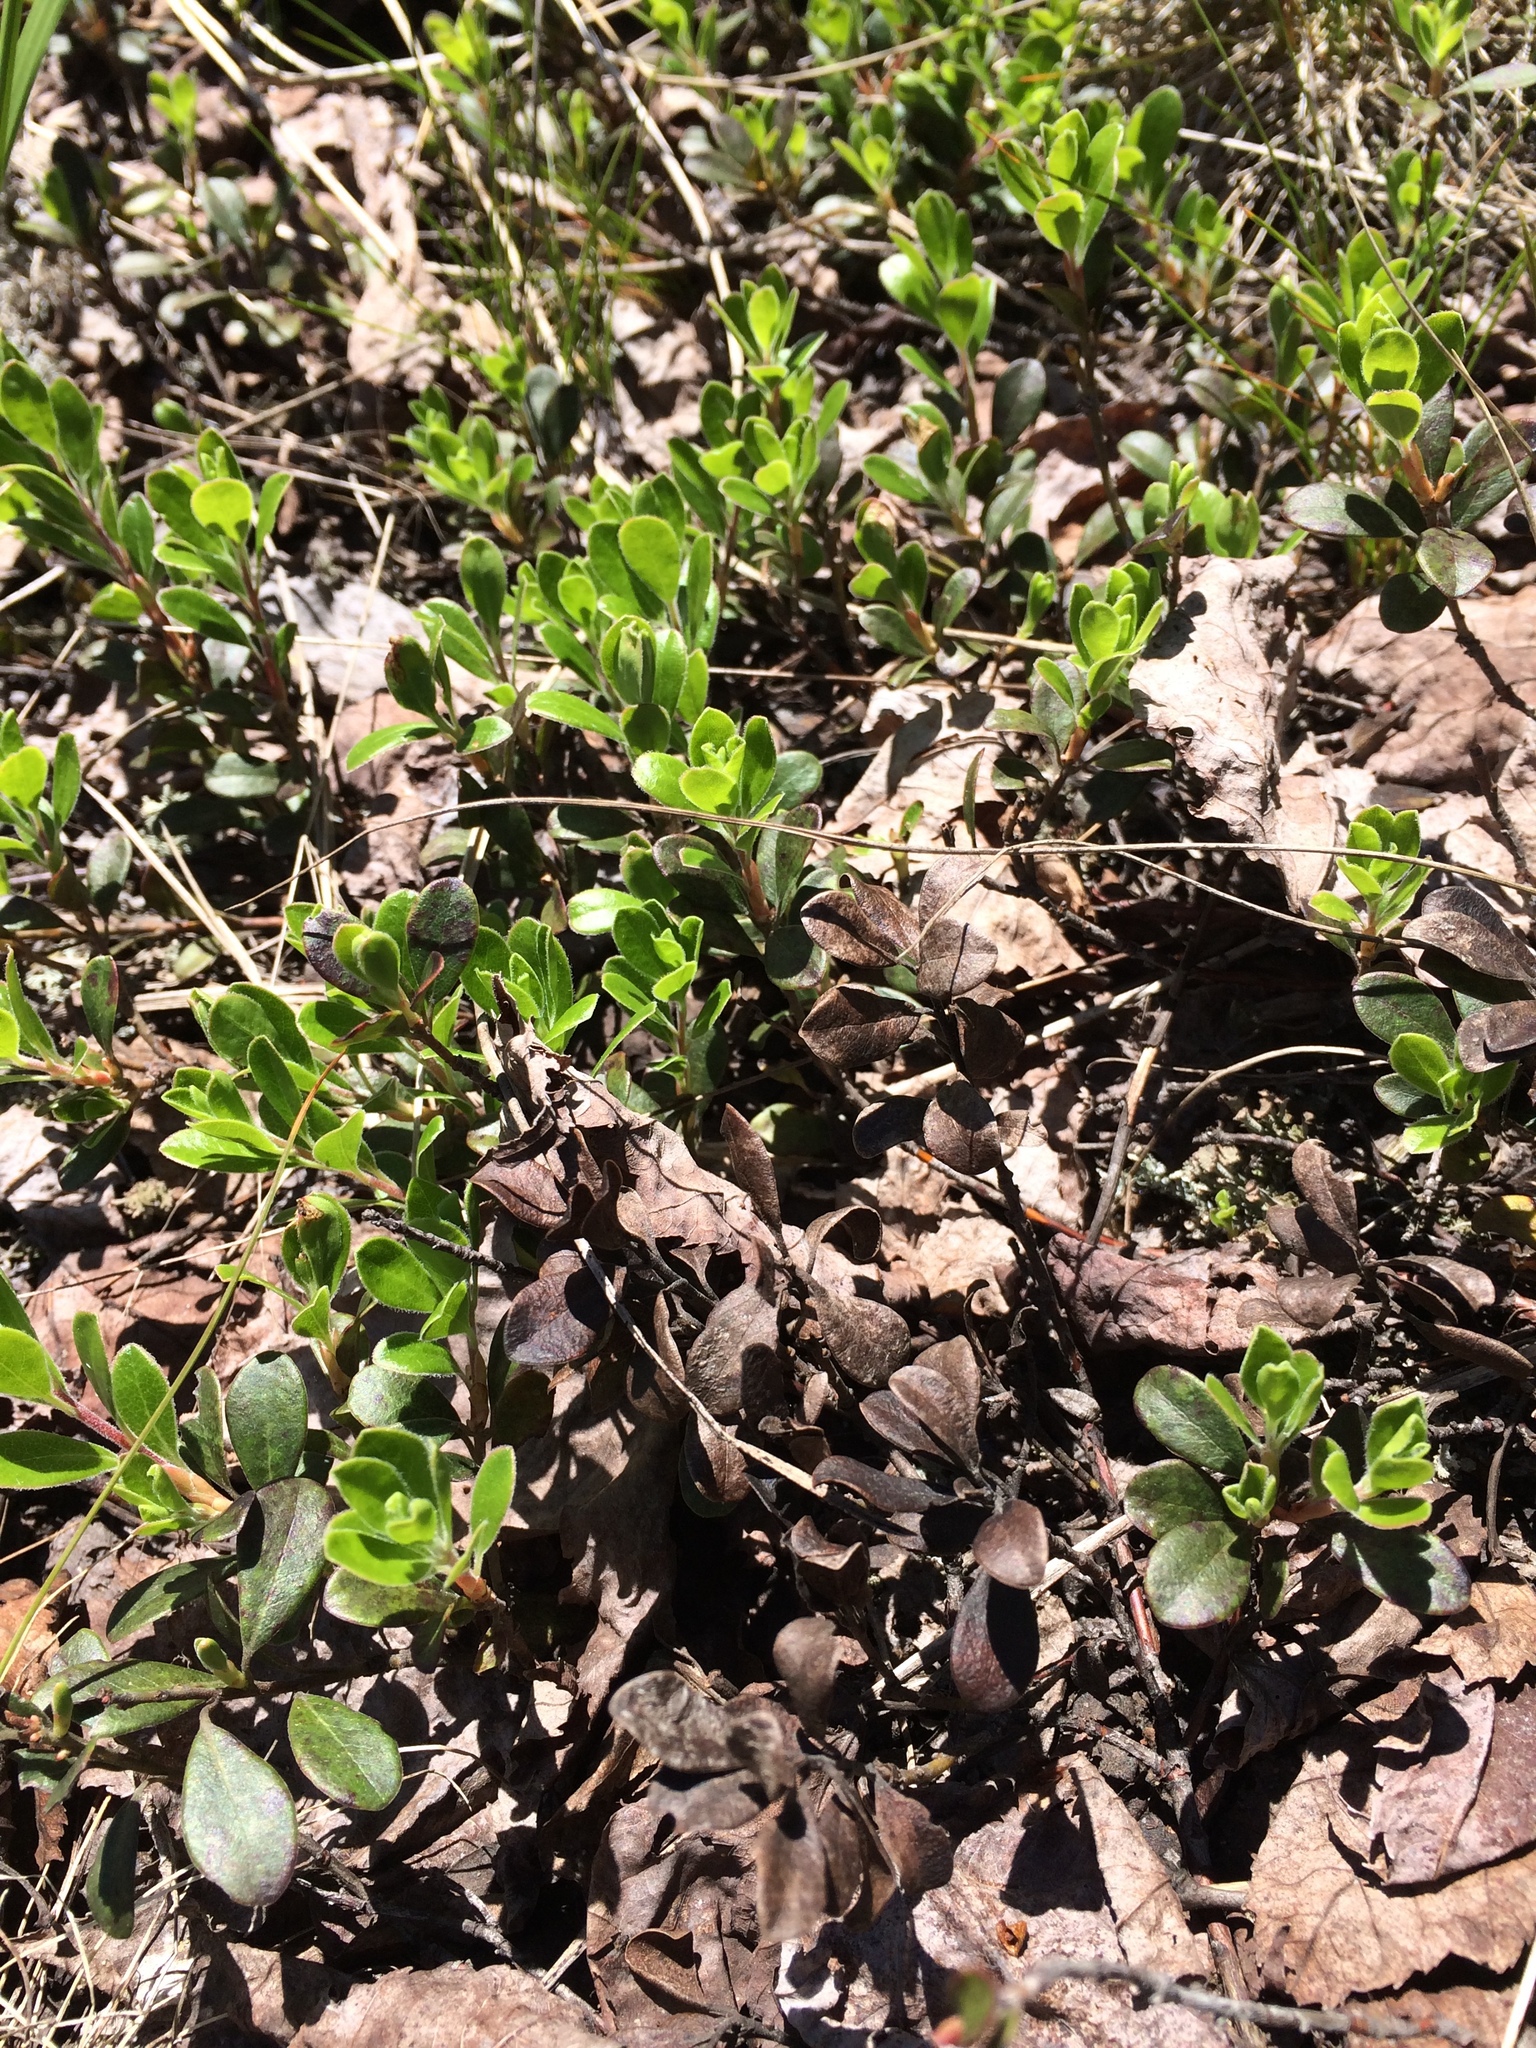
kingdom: Plantae
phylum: Tracheophyta
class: Magnoliopsida
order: Ericales
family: Ericaceae
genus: Arctostaphylos
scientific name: Arctostaphylos uva-ursi
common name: Bearberry
